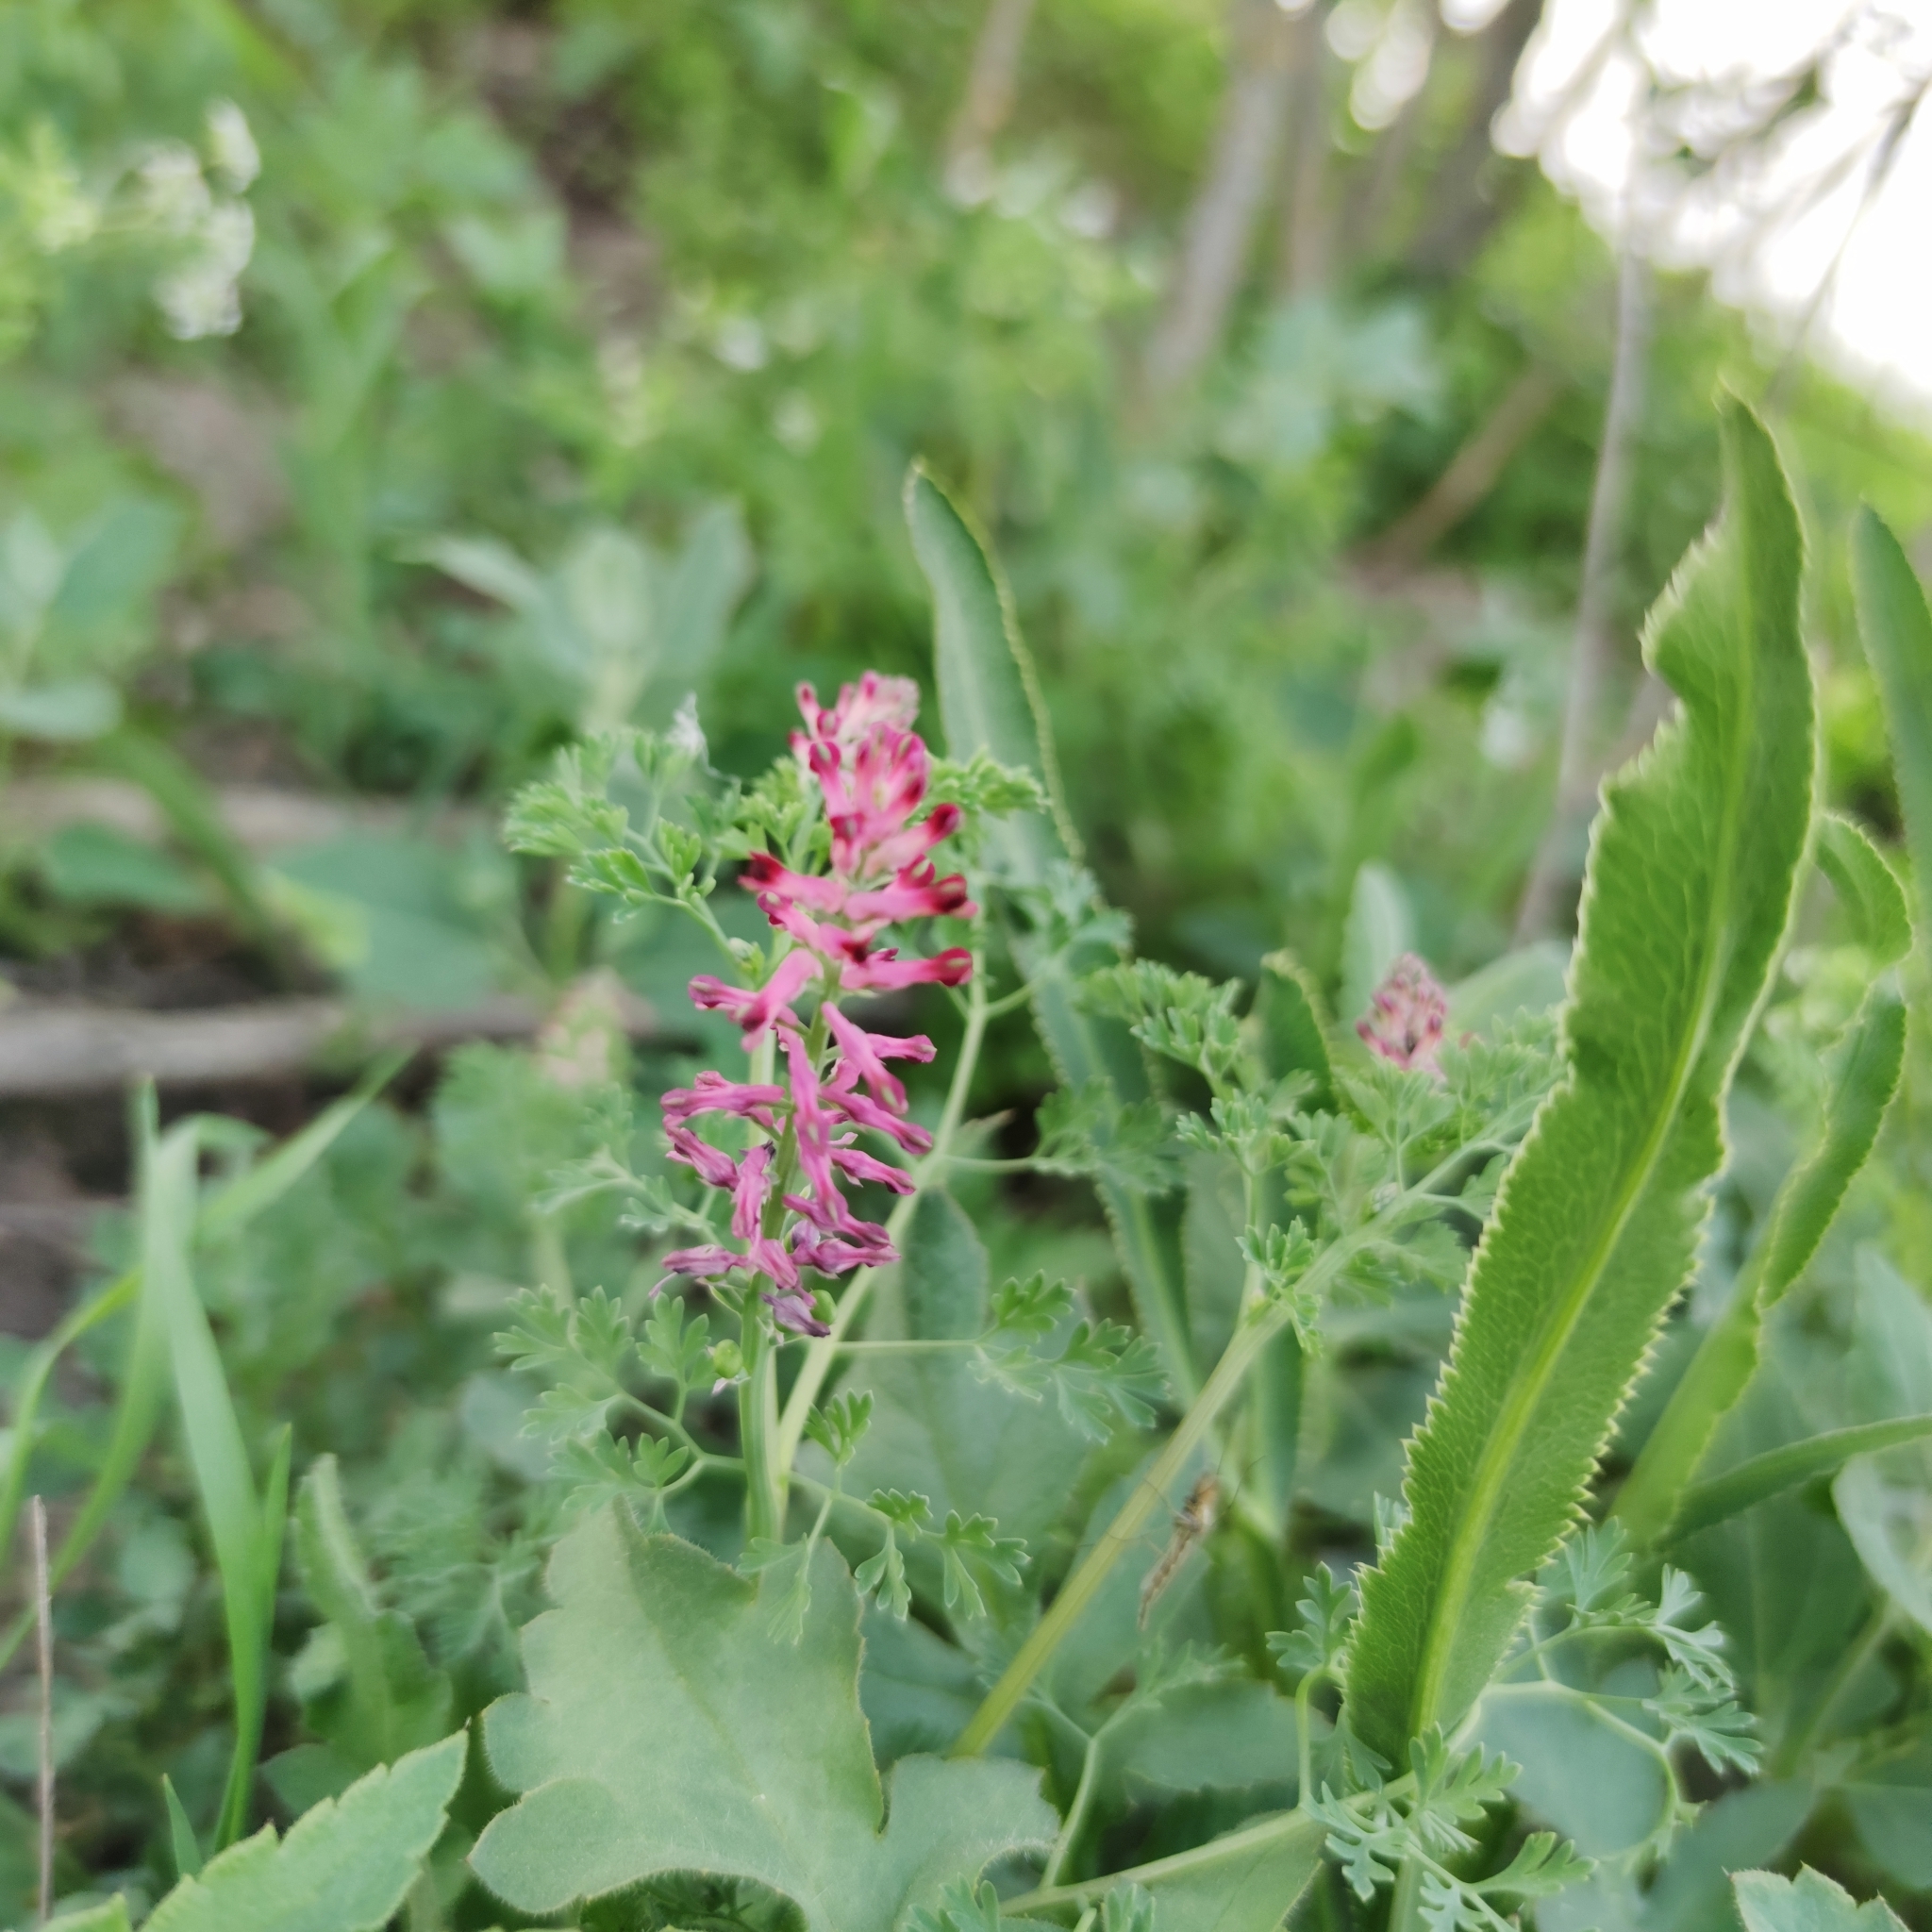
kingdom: Plantae
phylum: Tracheophyta
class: Magnoliopsida
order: Ranunculales
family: Papaveraceae
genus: Fumaria
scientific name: Fumaria officinalis
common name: Common fumitory
